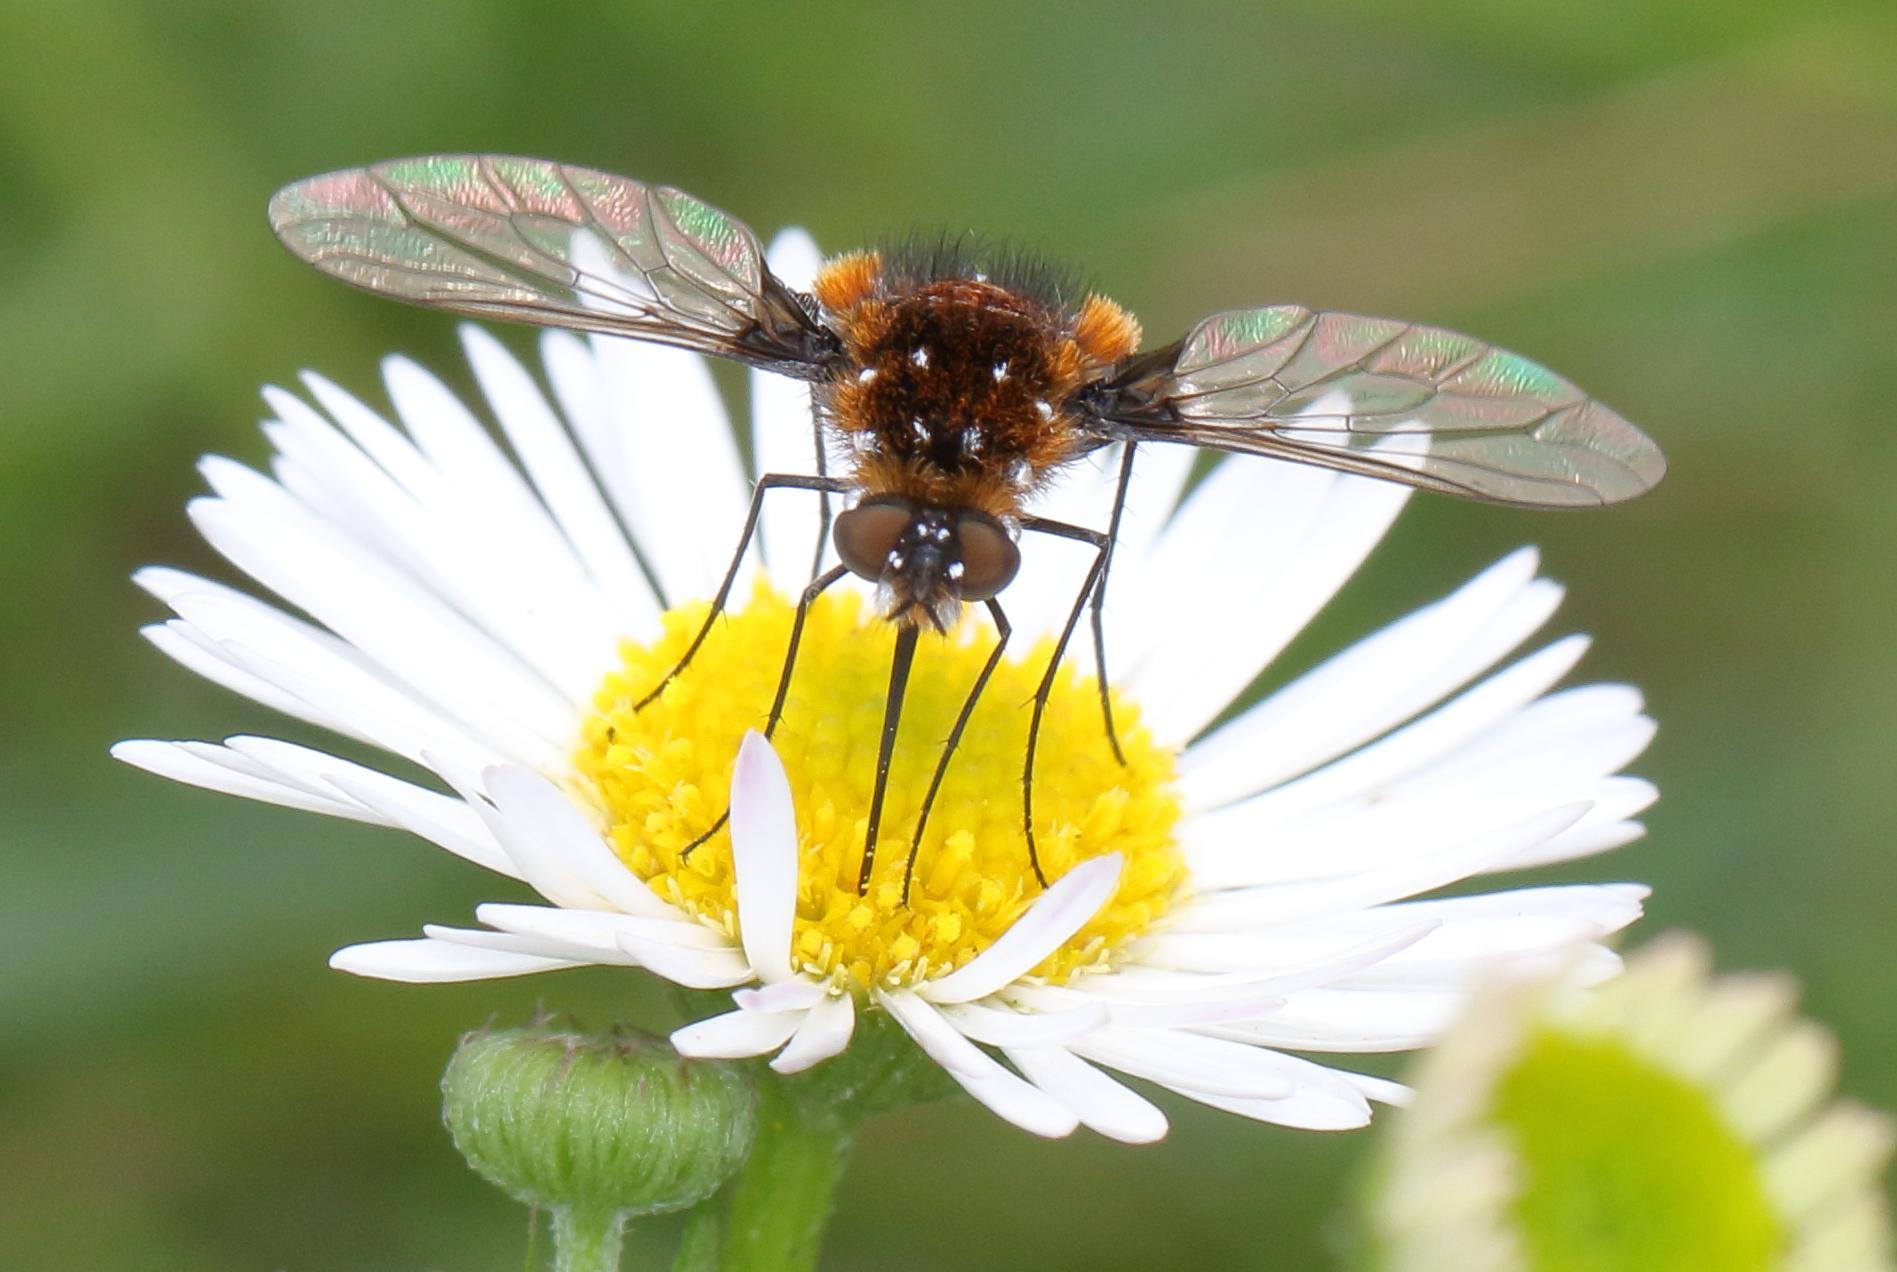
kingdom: Animalia
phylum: Arthropoda
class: Insecta
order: Diptera
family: Bombyliidae
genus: Bombylella
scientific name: Bombylella elegans
